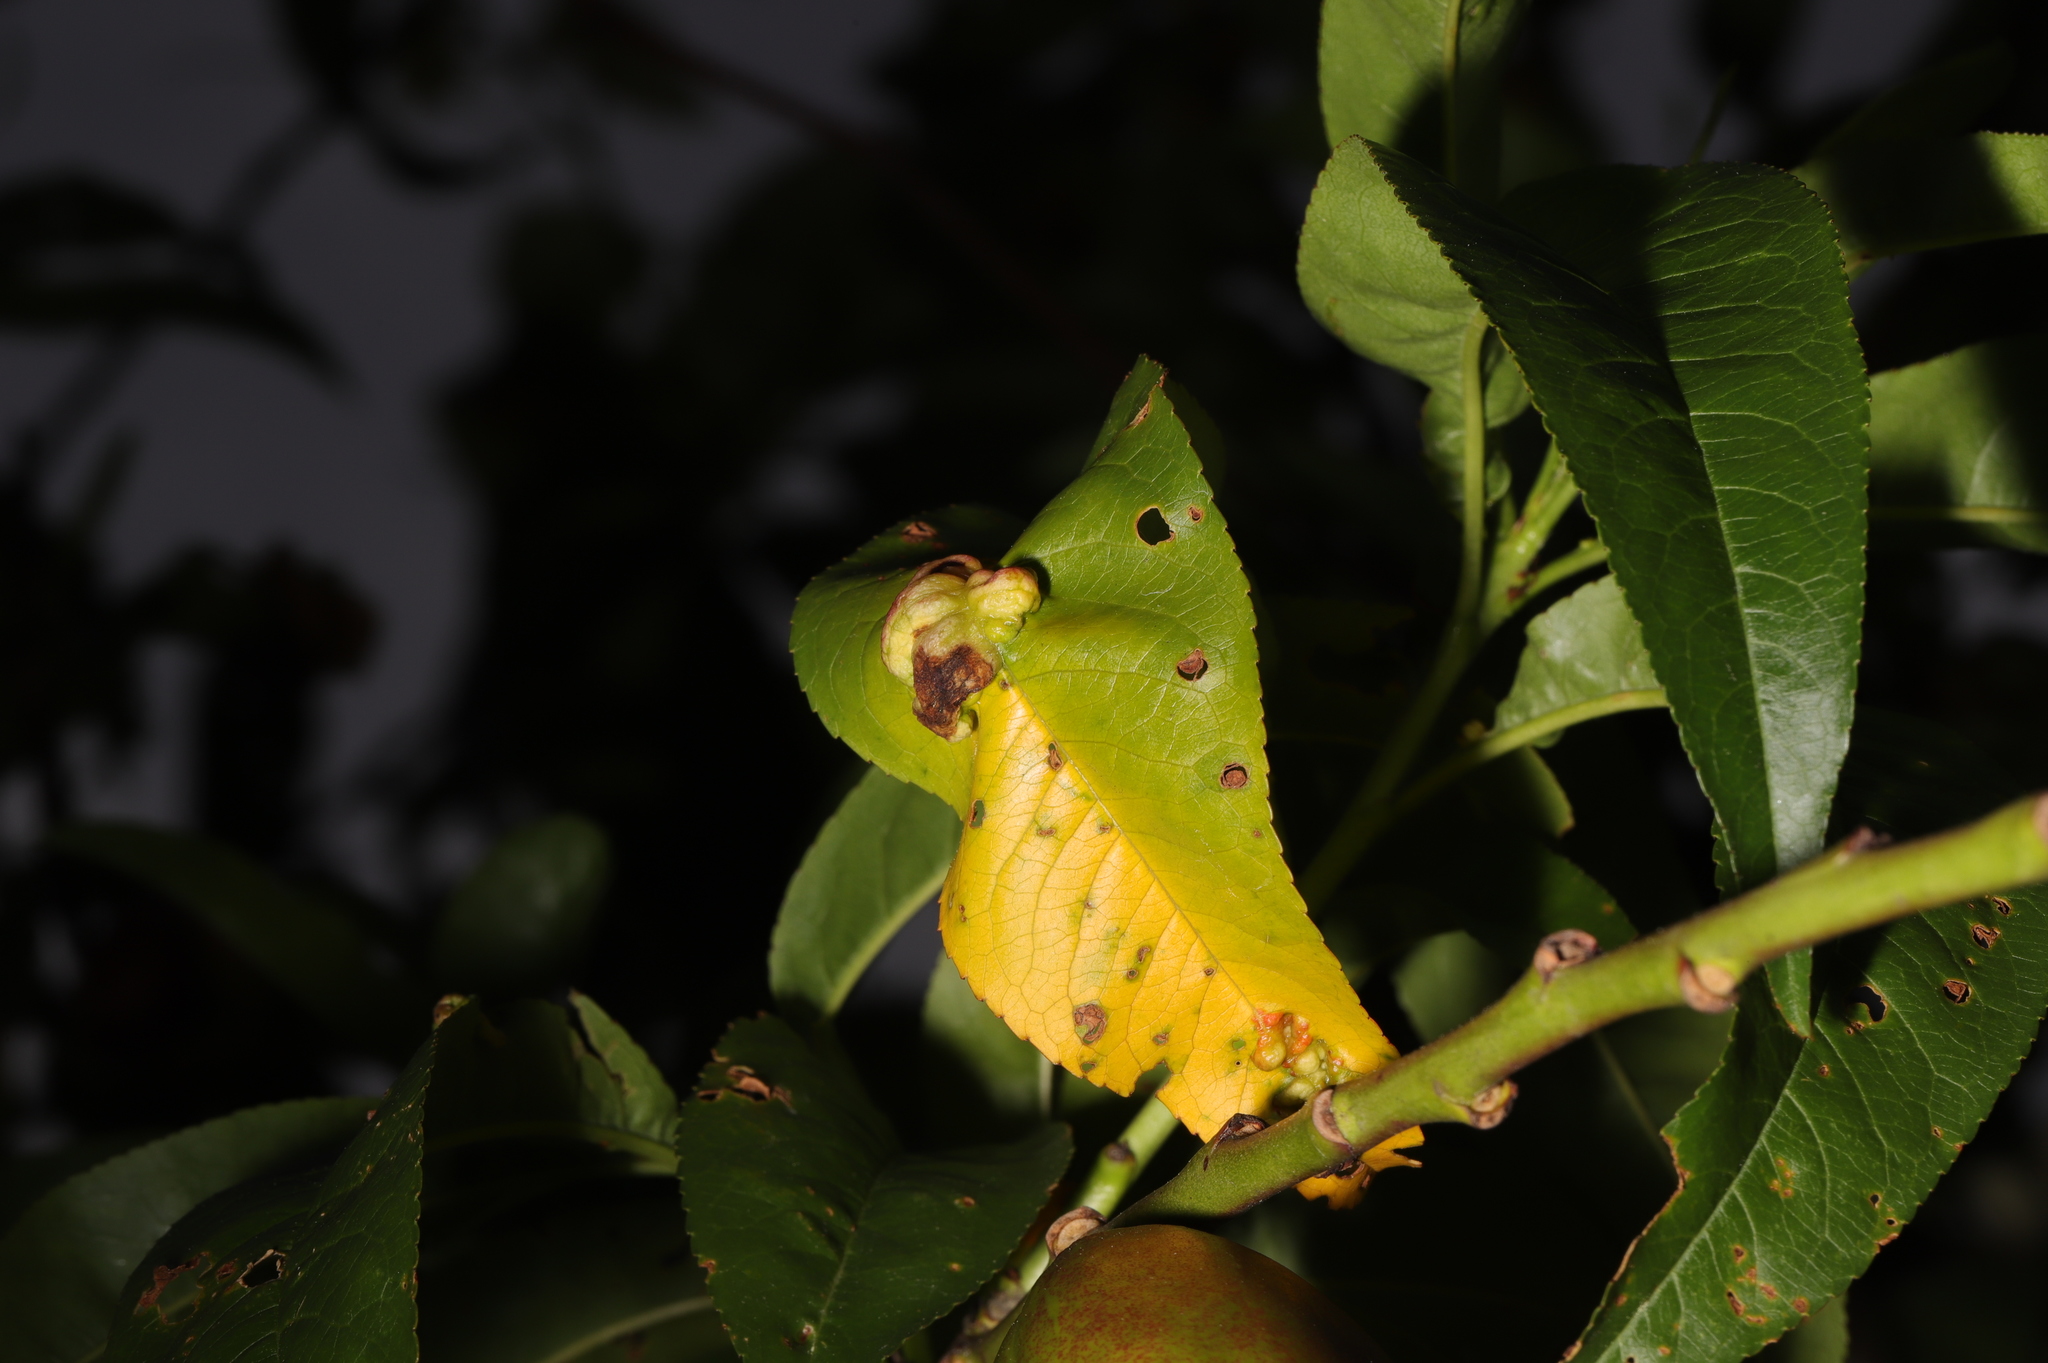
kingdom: Fungi
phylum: Ascomycota
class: Taphrinomycetes
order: Taphrinales
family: Taphrinaceae
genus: Taphrina
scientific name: Taphrina deformans
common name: Peach leaf curl
